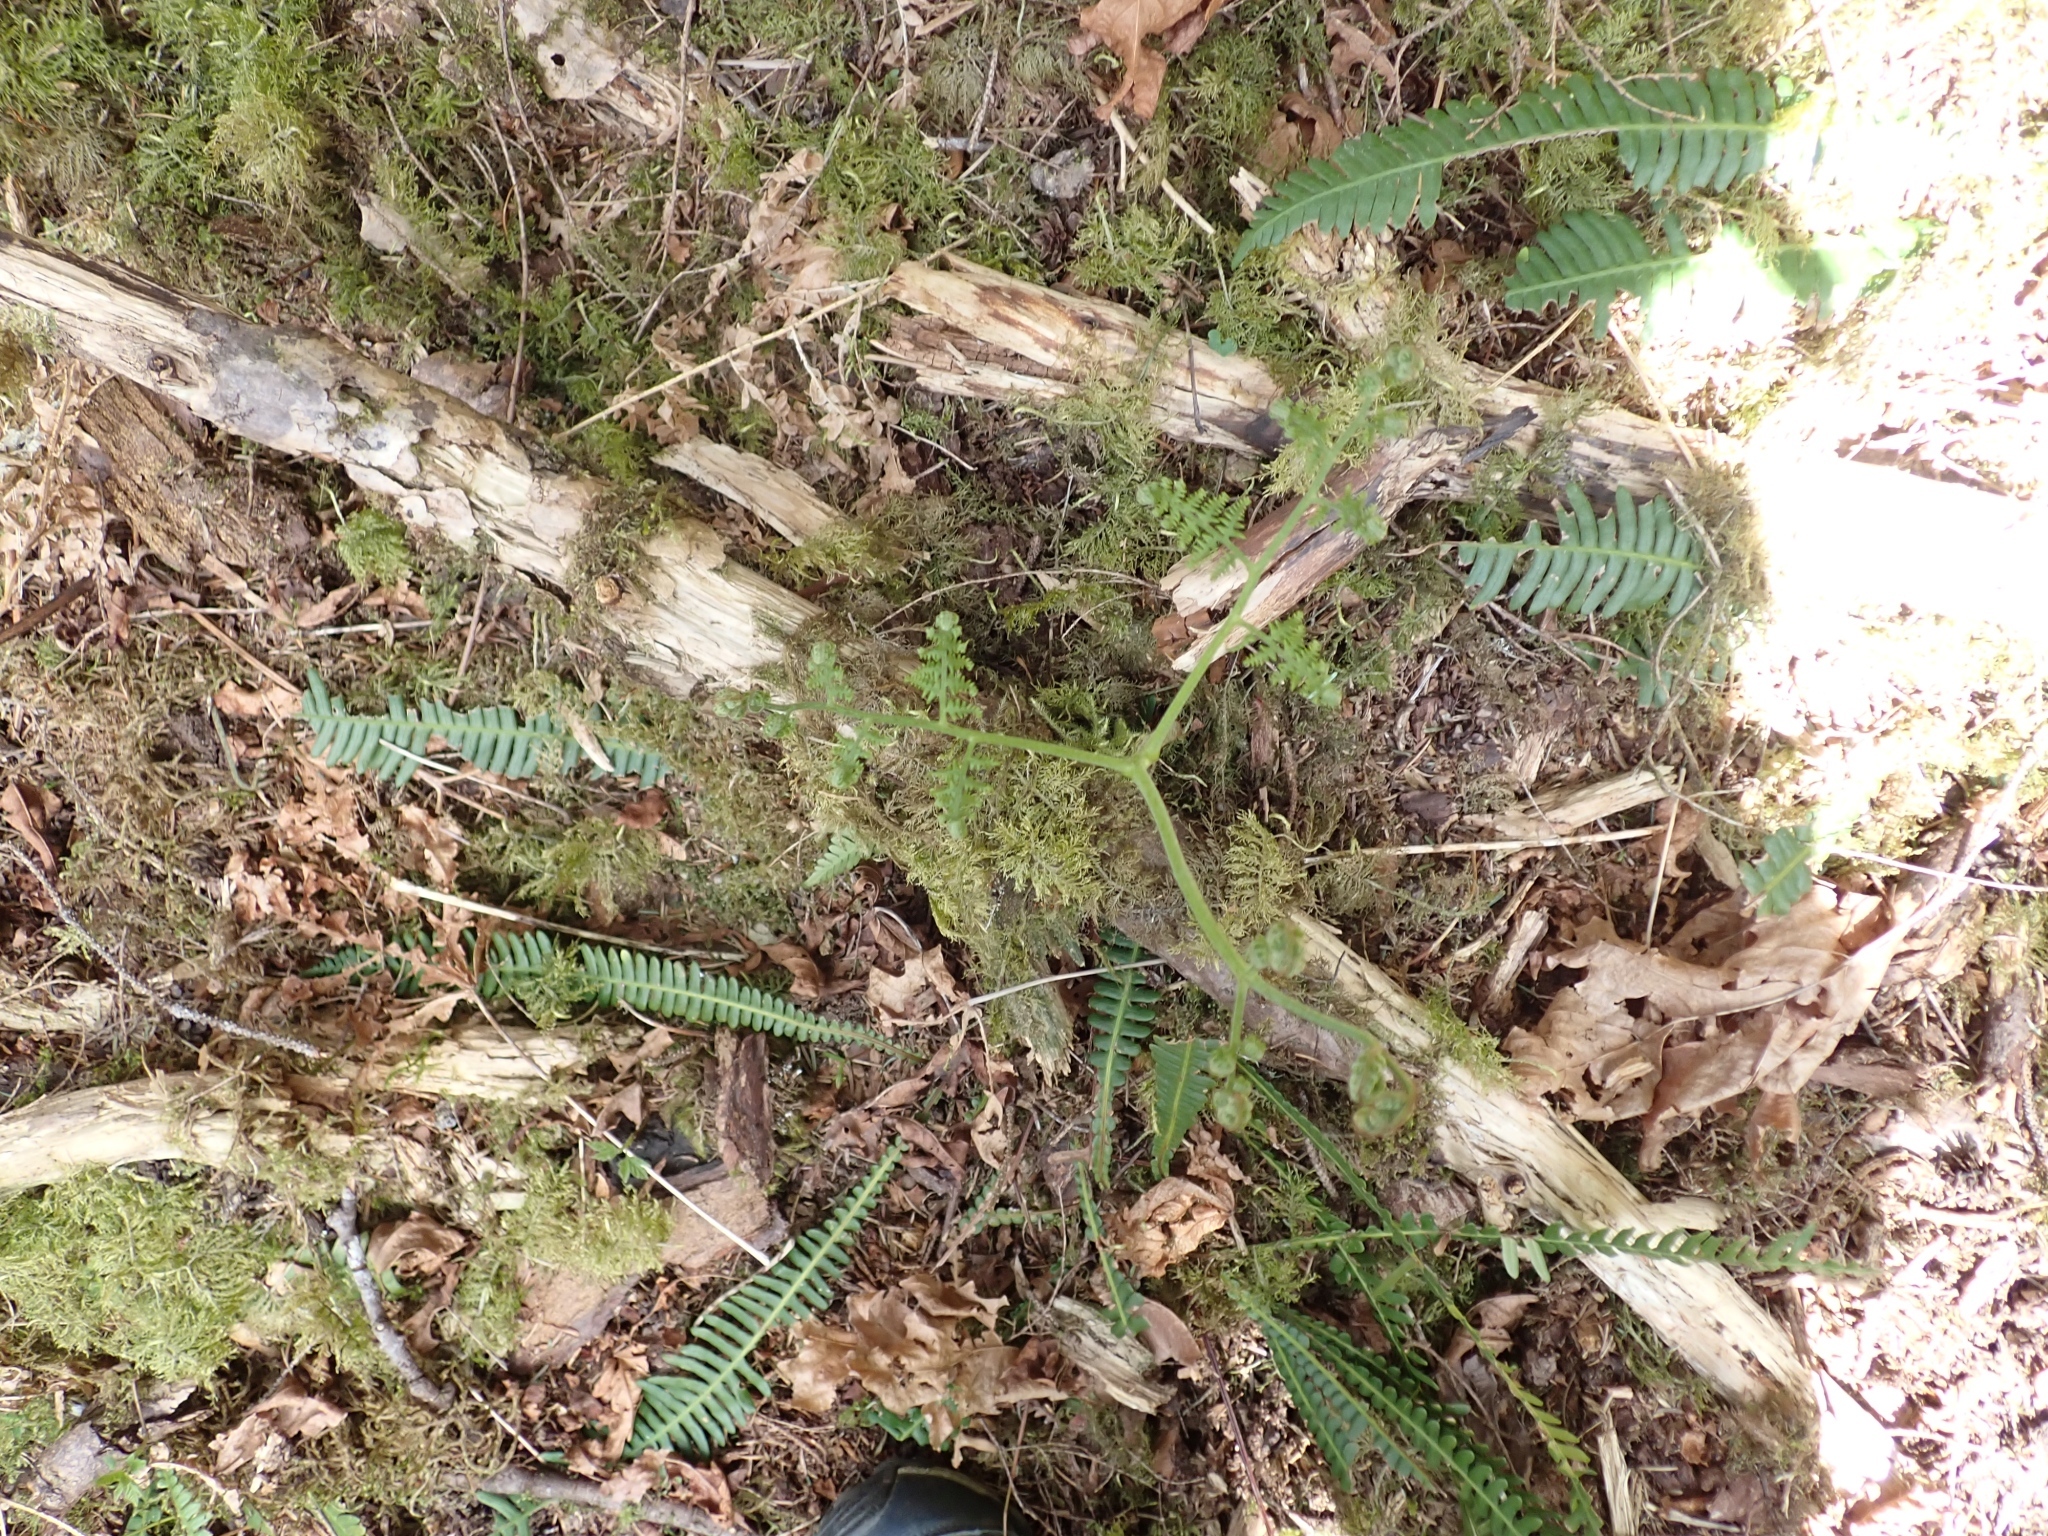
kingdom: Plantae
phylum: Tracheophyta
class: Polypodiopsida
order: Polypodiales
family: Dennstaedtiaceae
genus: Pteridium
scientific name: Pteridium aquilinum
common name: Bracken
